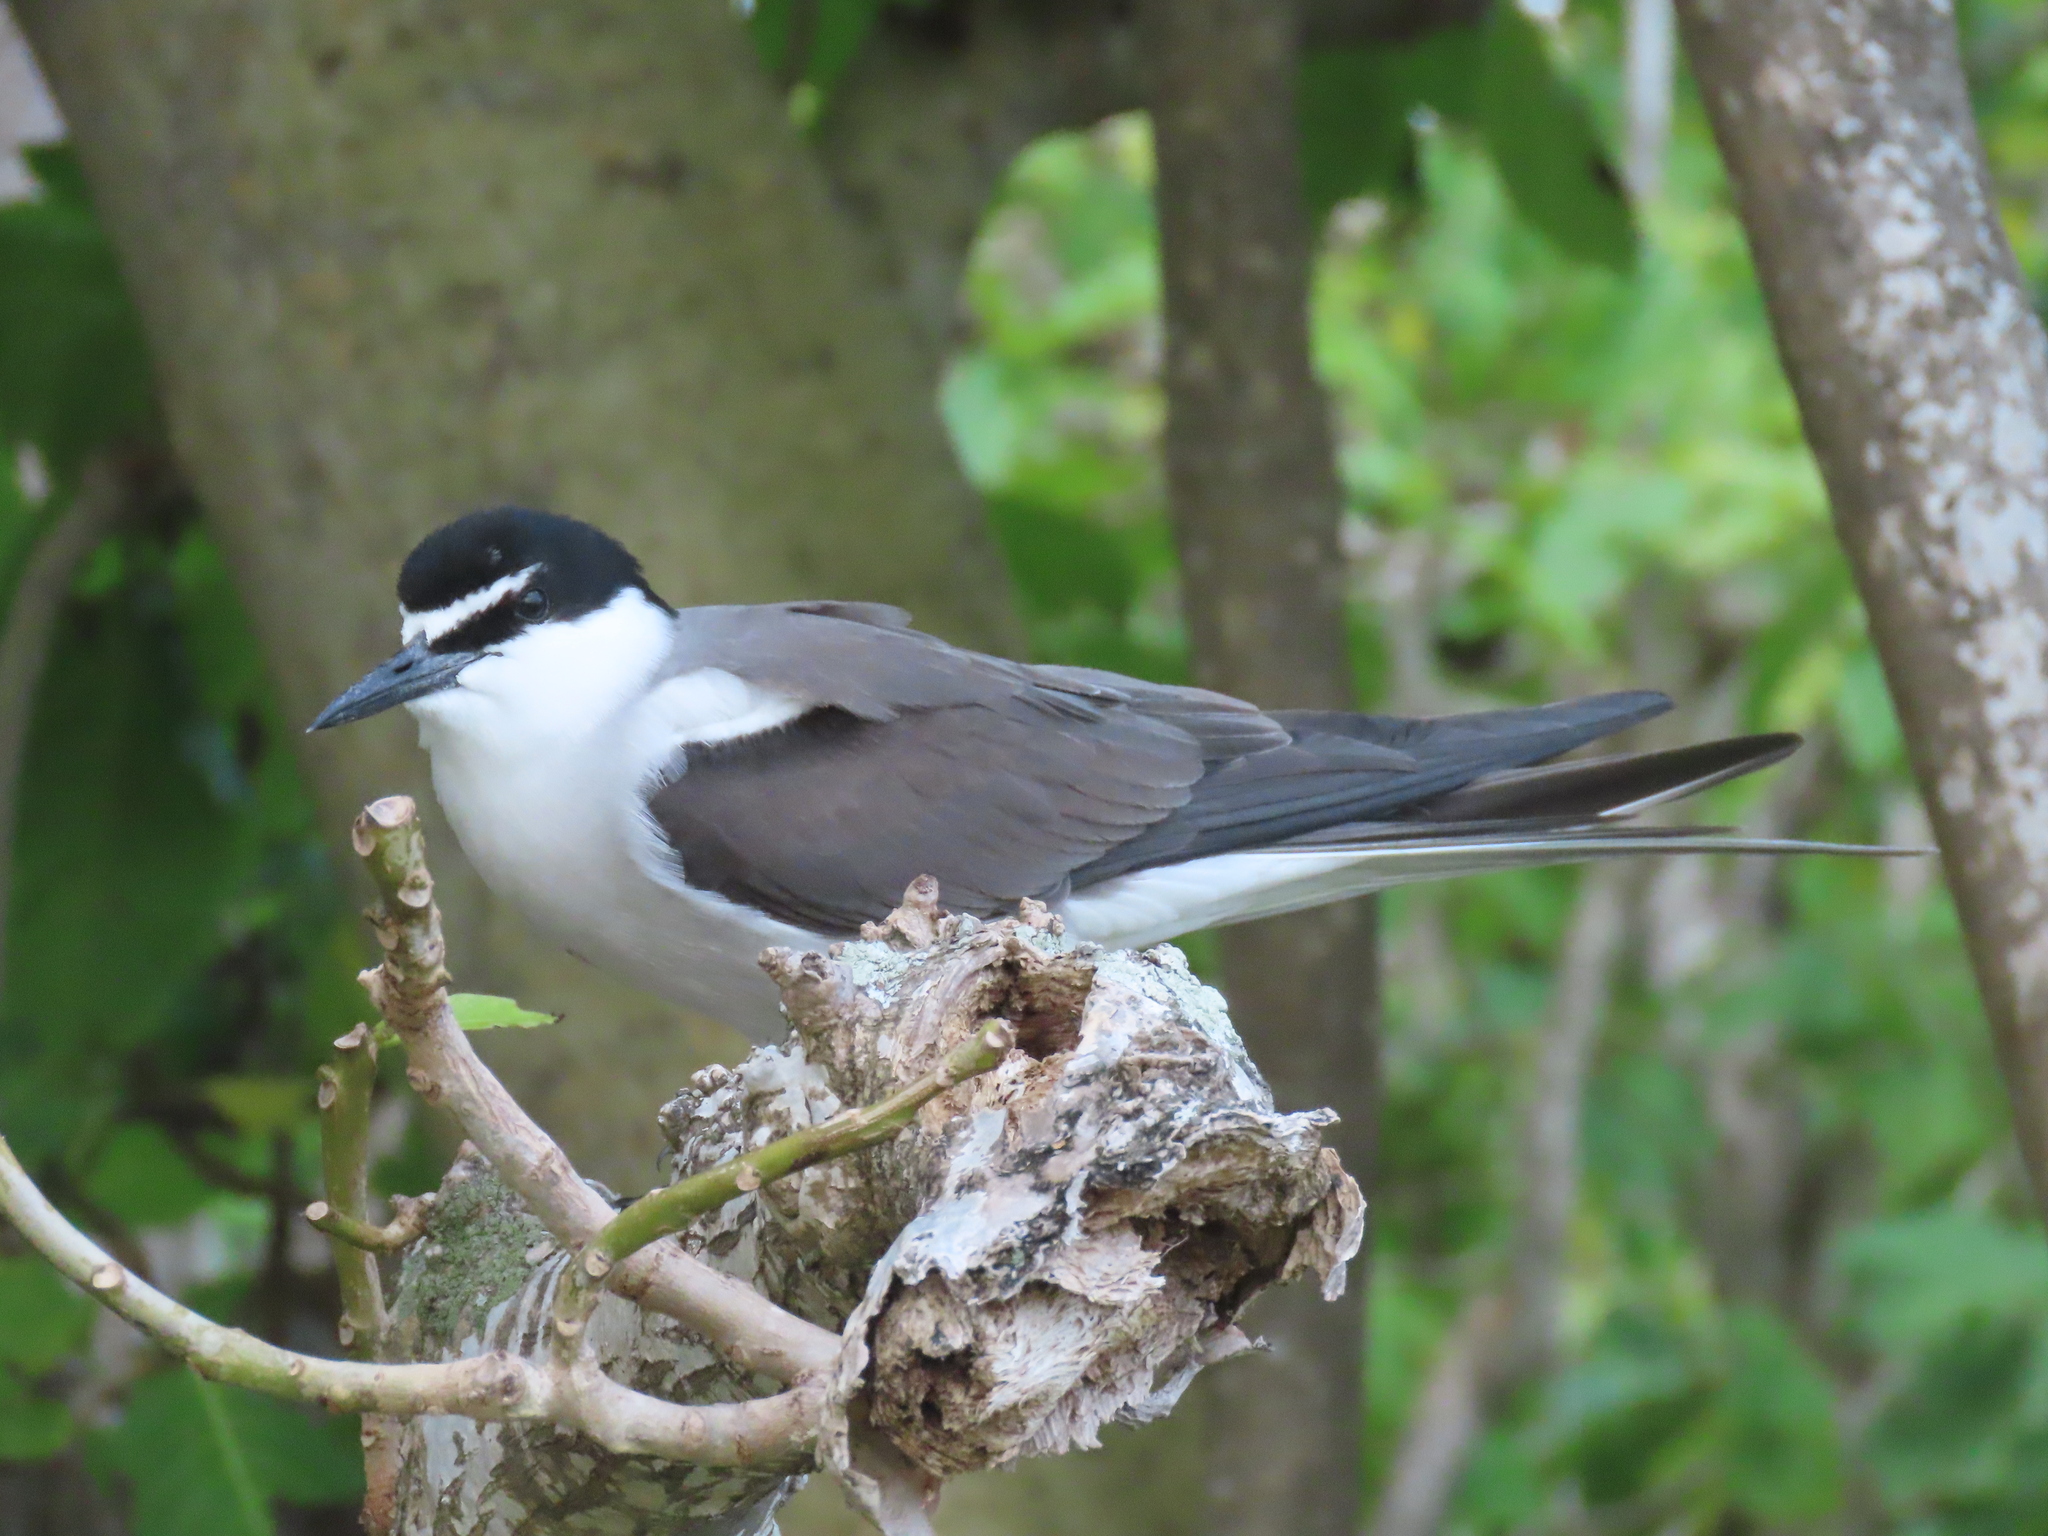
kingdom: Animalia
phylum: Chordata
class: Aves
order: Charadriiformes
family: Laridae
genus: Onychoprion
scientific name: Onychoprion anaethetus
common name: Bridled tern
